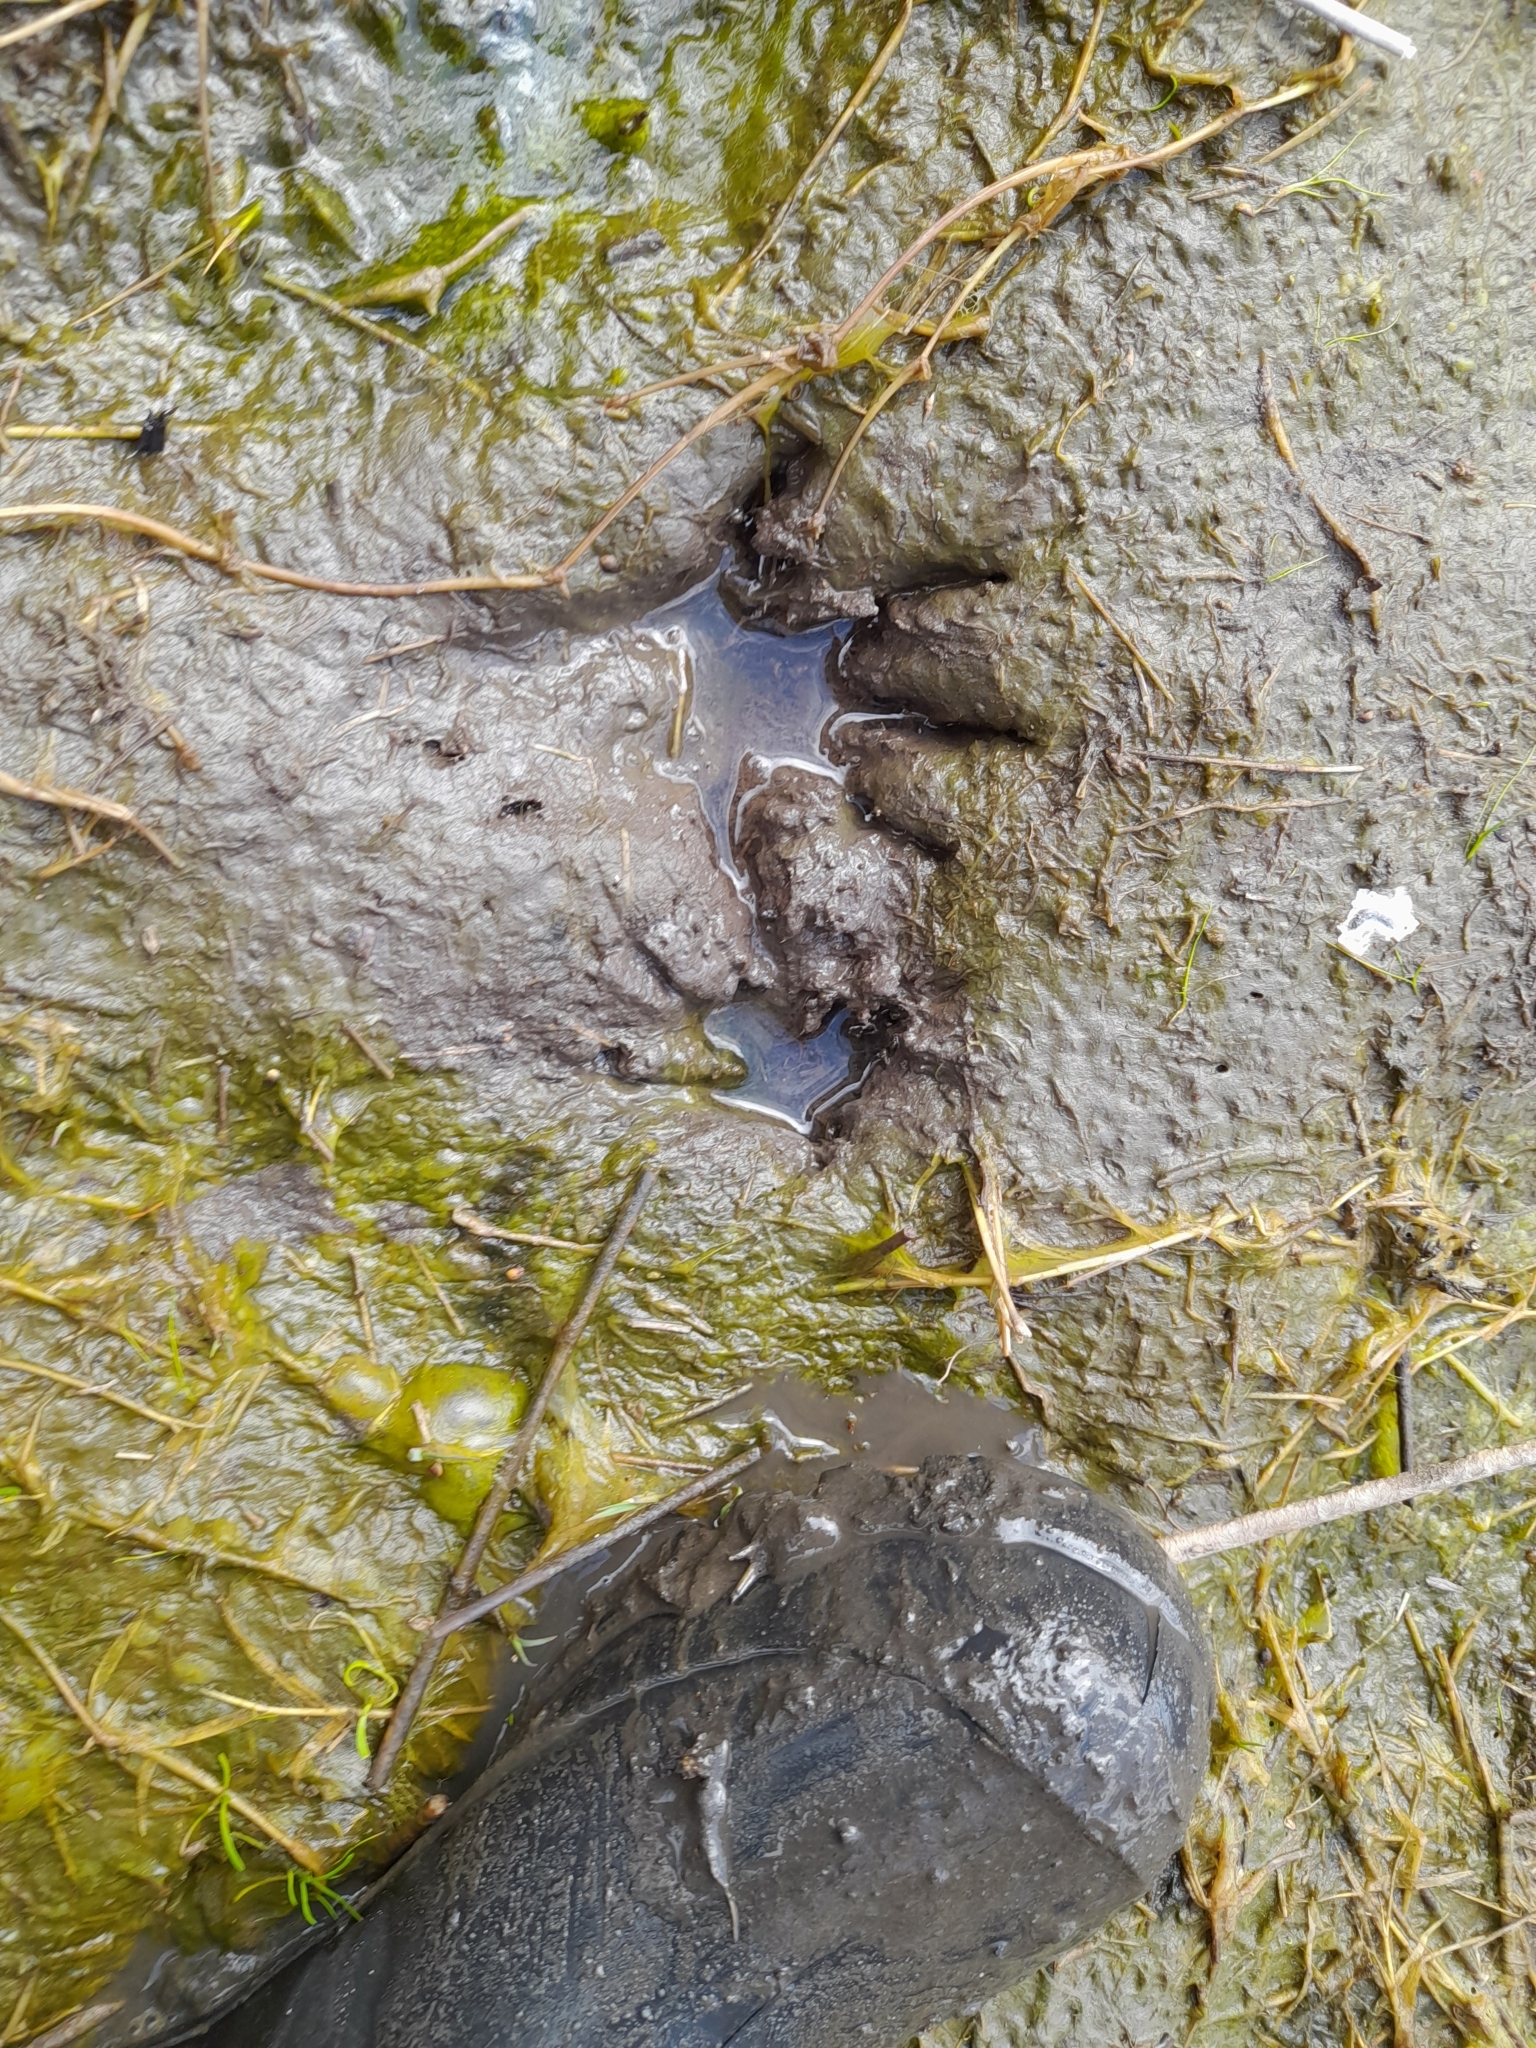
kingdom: Animalia
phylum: Chordata
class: Mammalia
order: Carnivora
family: Procyonidae
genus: Procyon
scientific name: Procyon cancrivorus
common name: Crab-eating raccoon
